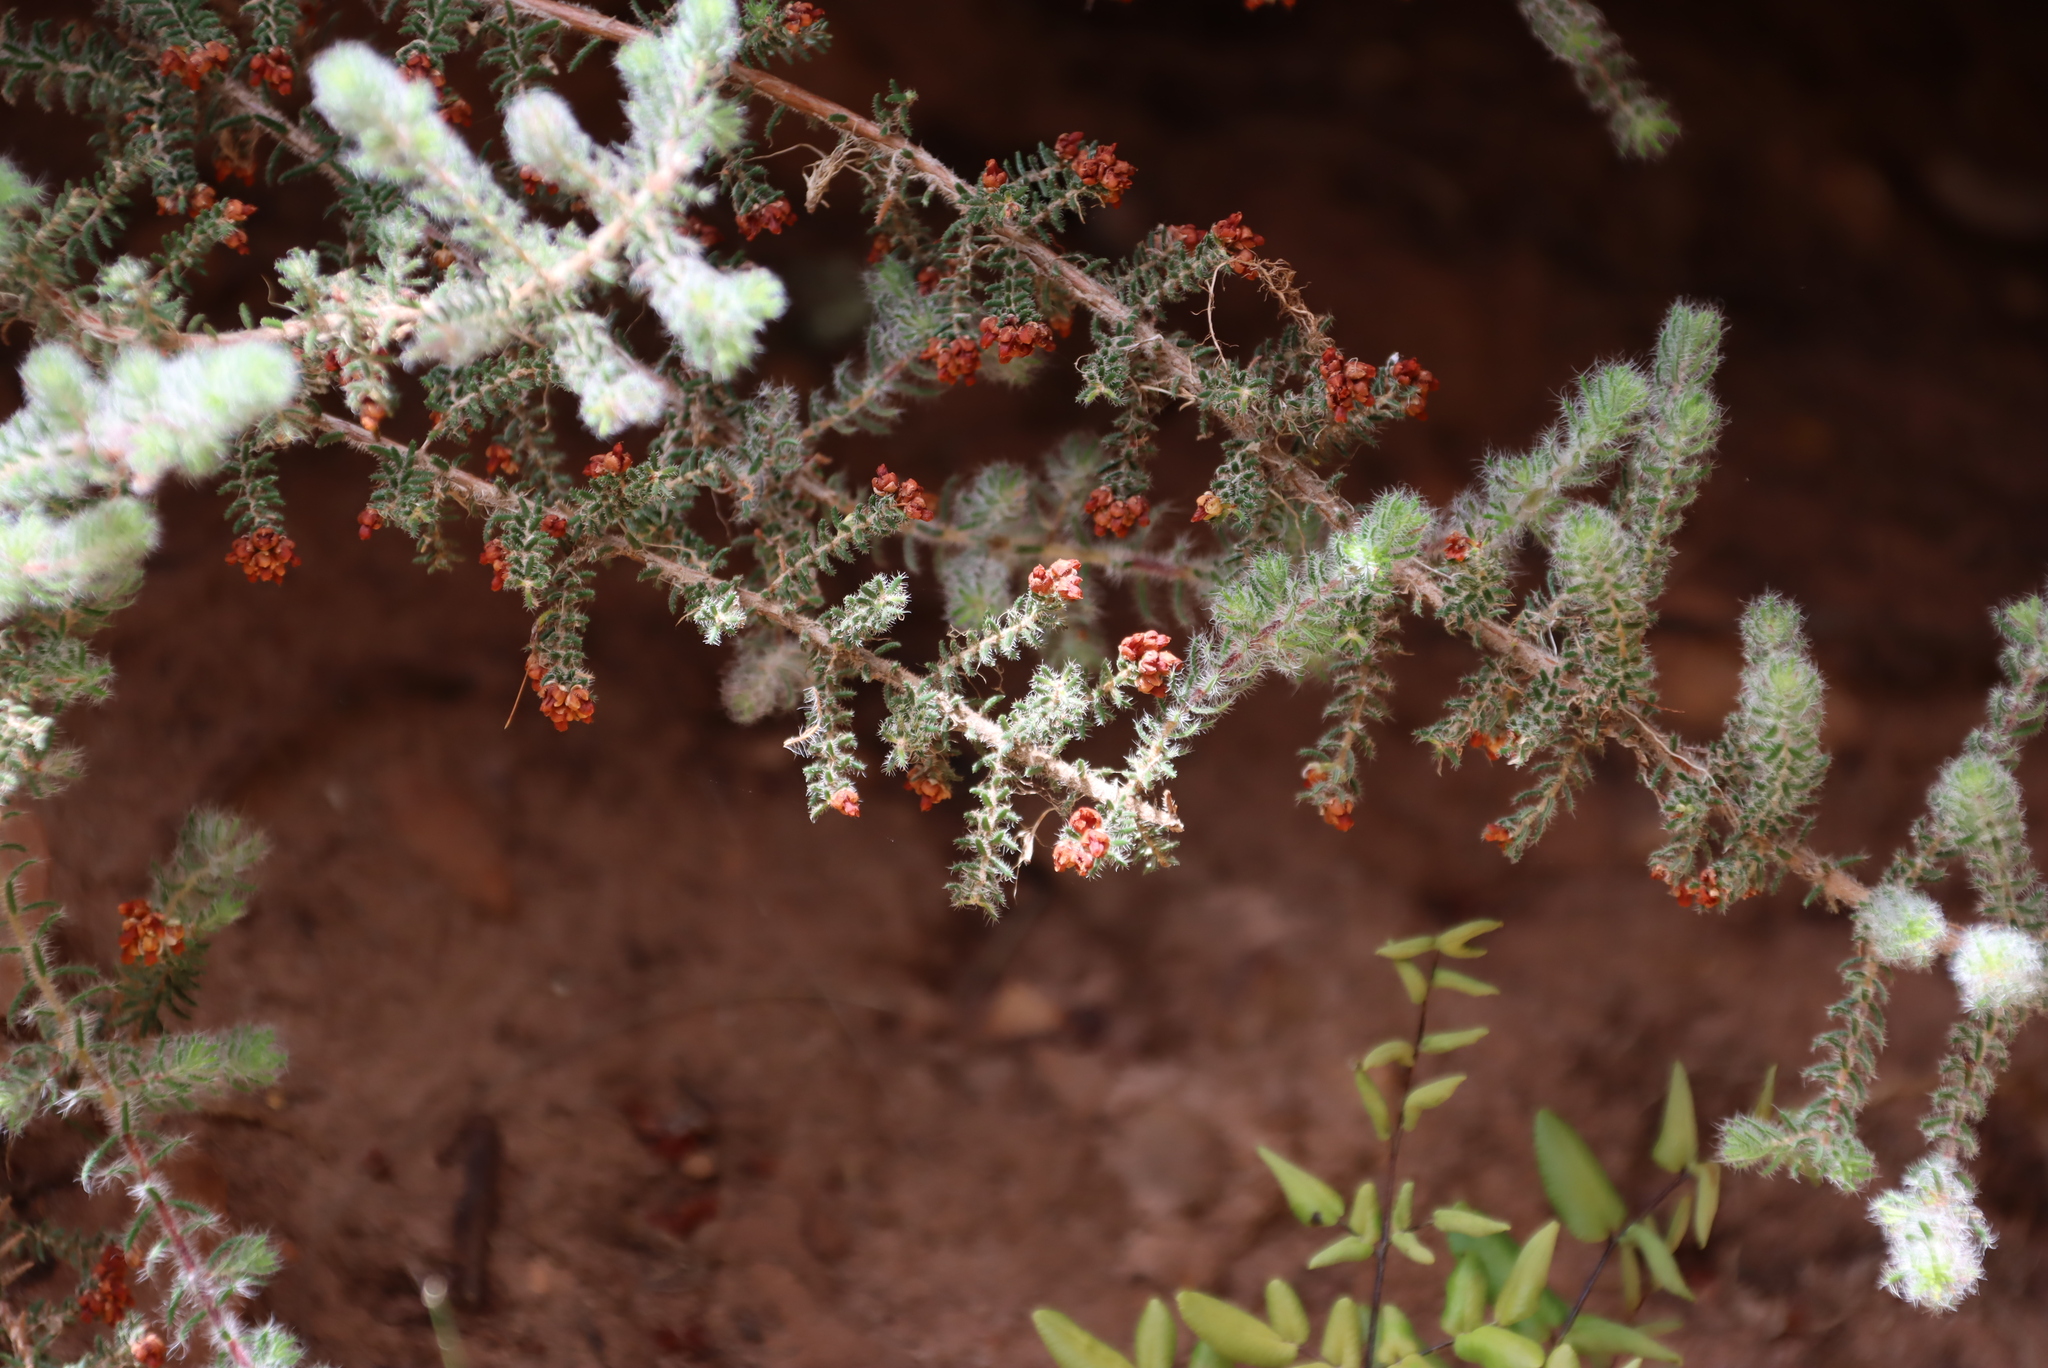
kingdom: Plantae
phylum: Tracheophyta
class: Magnoliopsida
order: Ericales
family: Ericaceae
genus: Erica
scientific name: Erica totta
